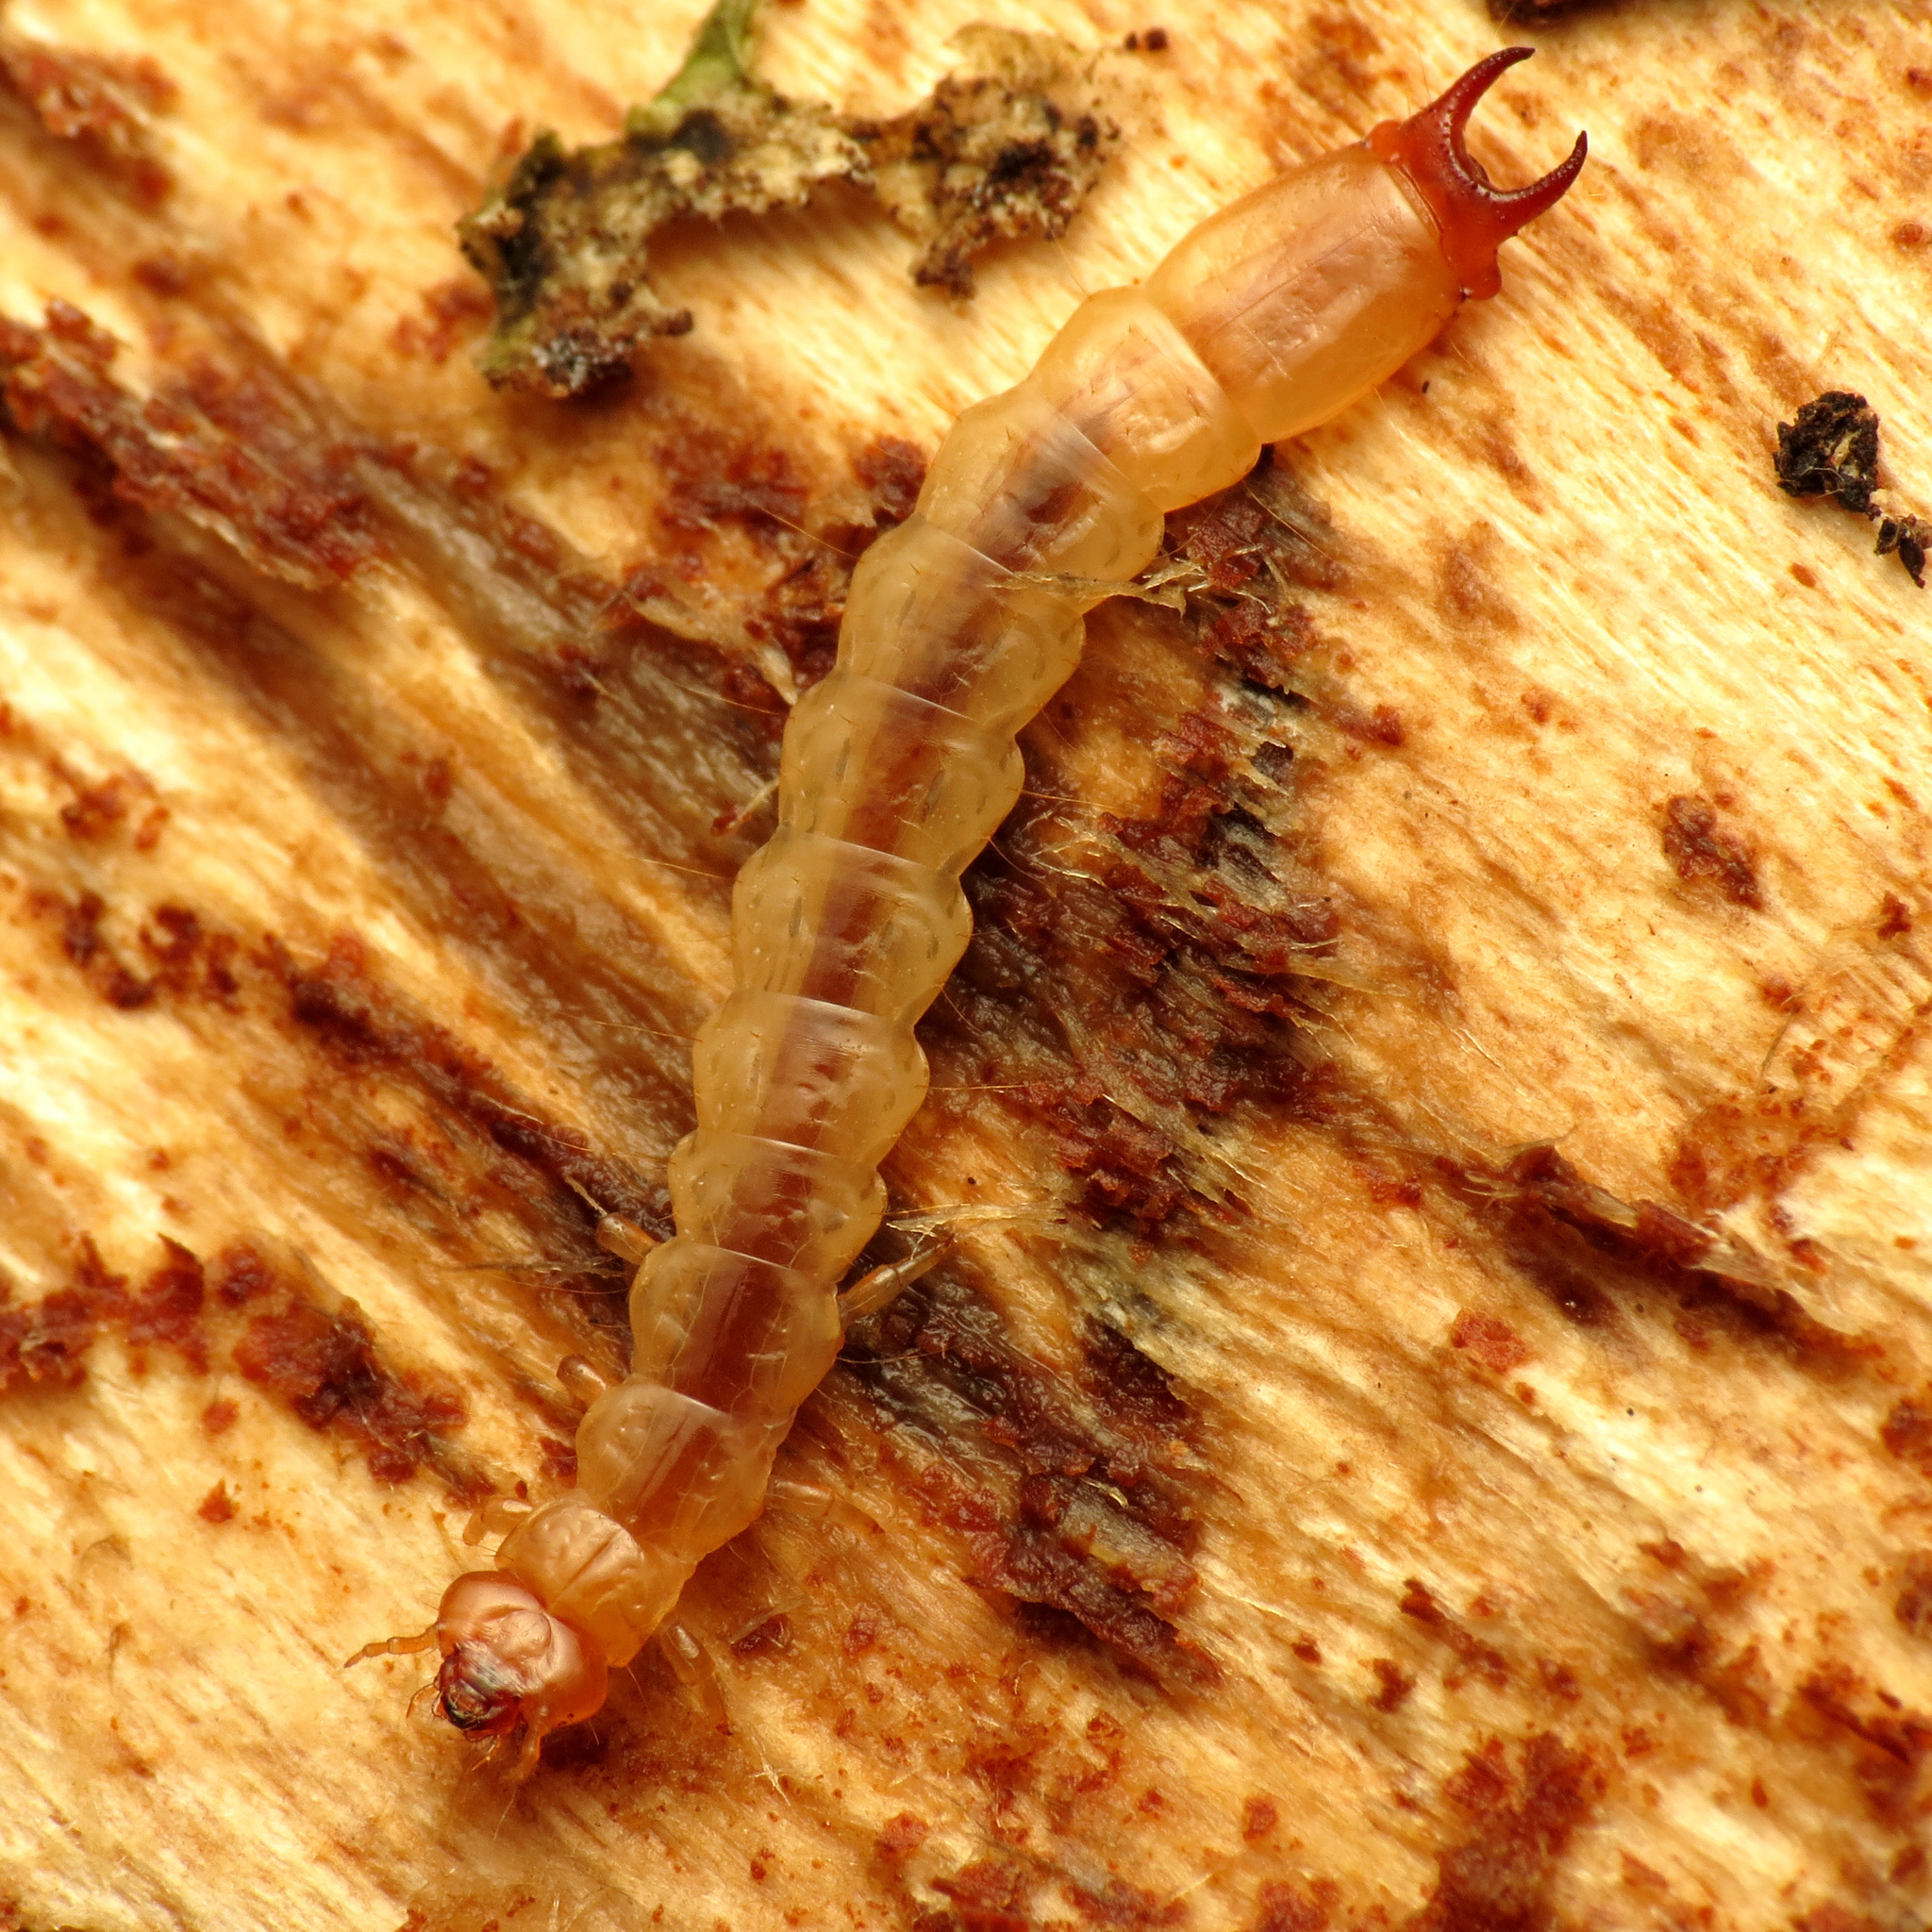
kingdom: Animalia
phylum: Arthropoda
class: Insecta
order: Coleoptera
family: Pyrochroidae
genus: Dendroides
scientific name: Dendroides canadensis
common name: Canada fire-colored beetle
